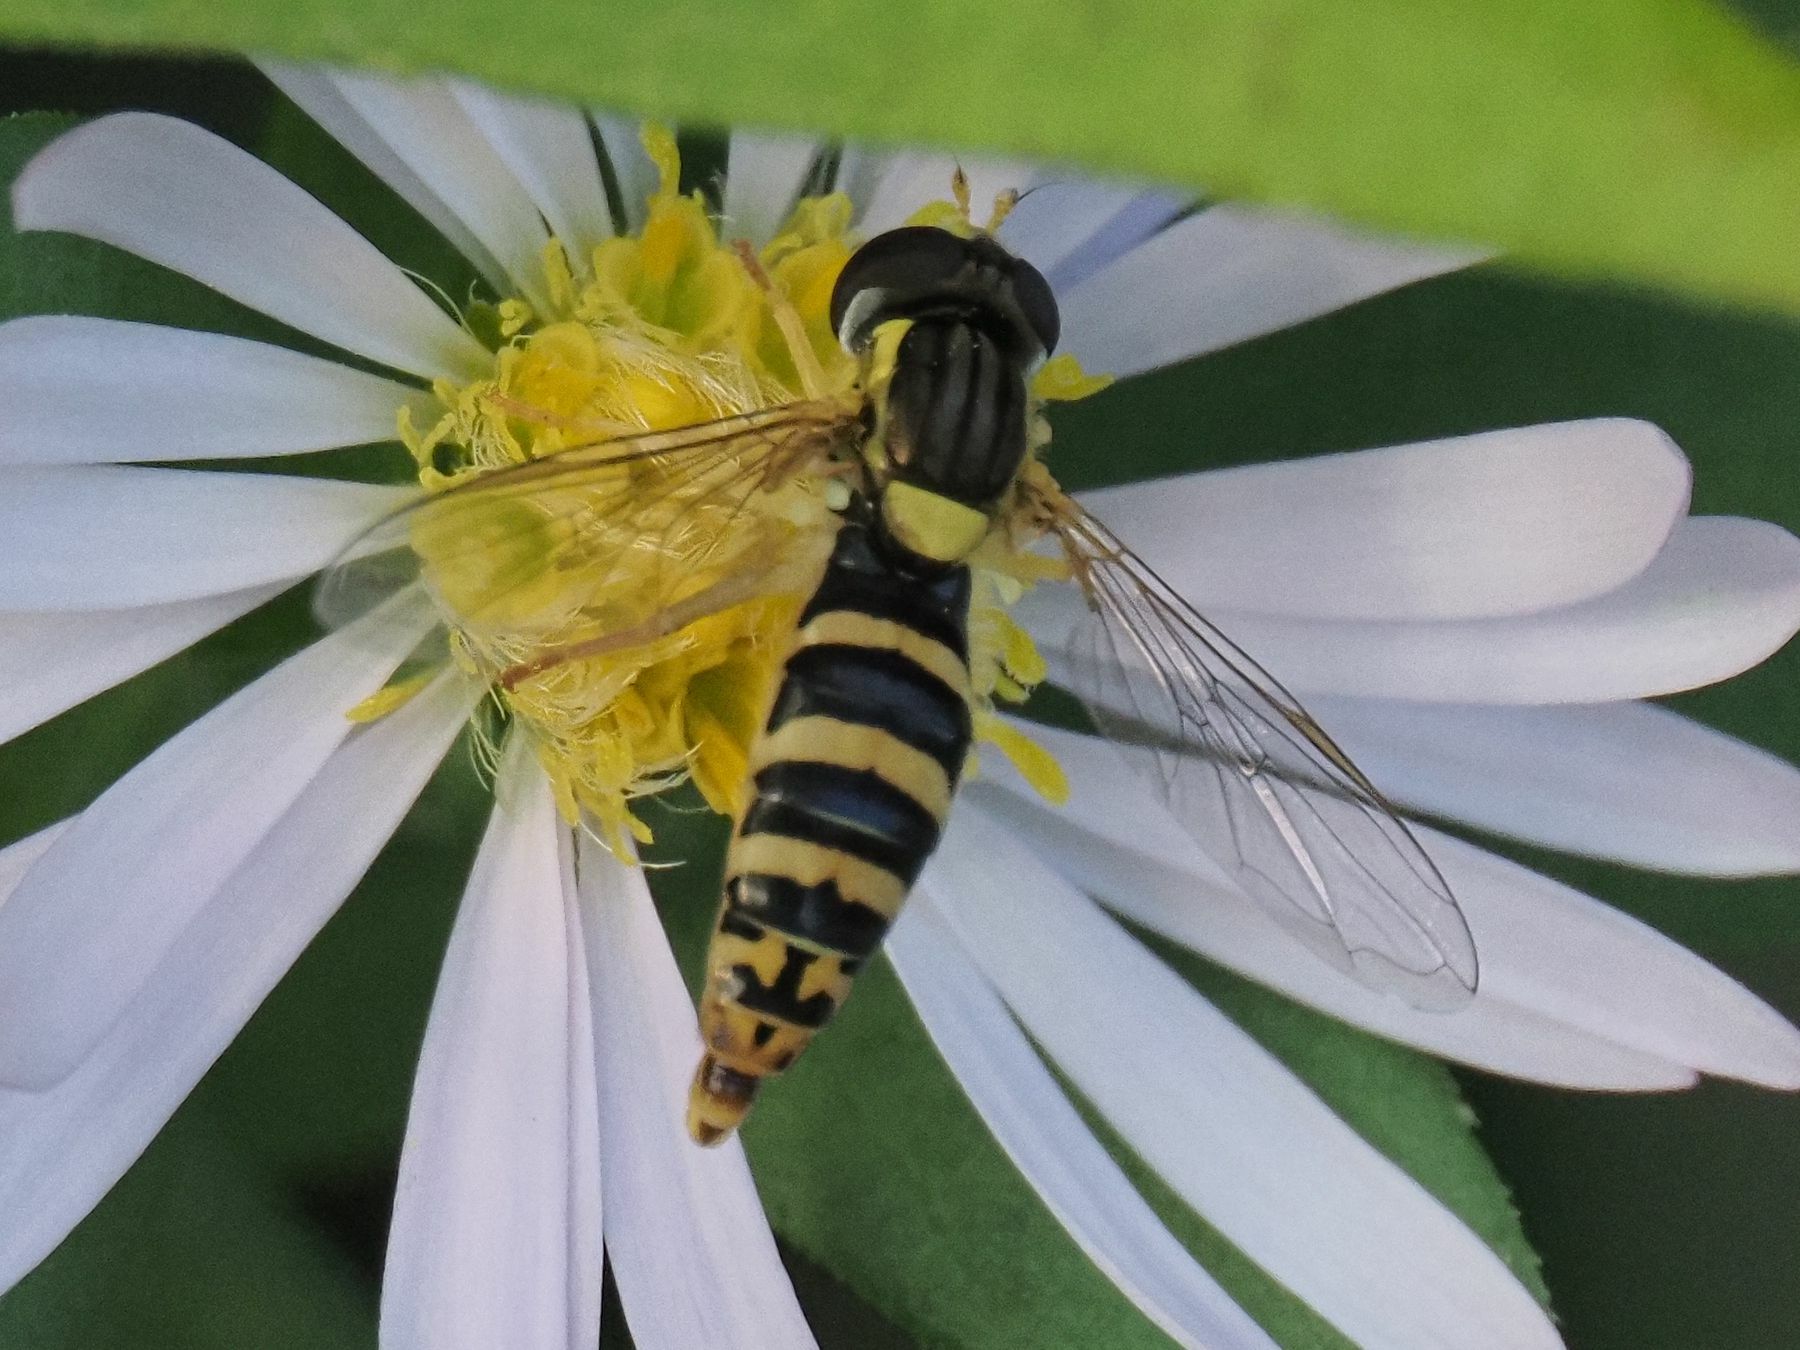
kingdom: Animalia
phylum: Arthropoda
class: Insecta
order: Diptera
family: Syrphidae
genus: Sphaerophoria
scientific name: Sphaerophoria
